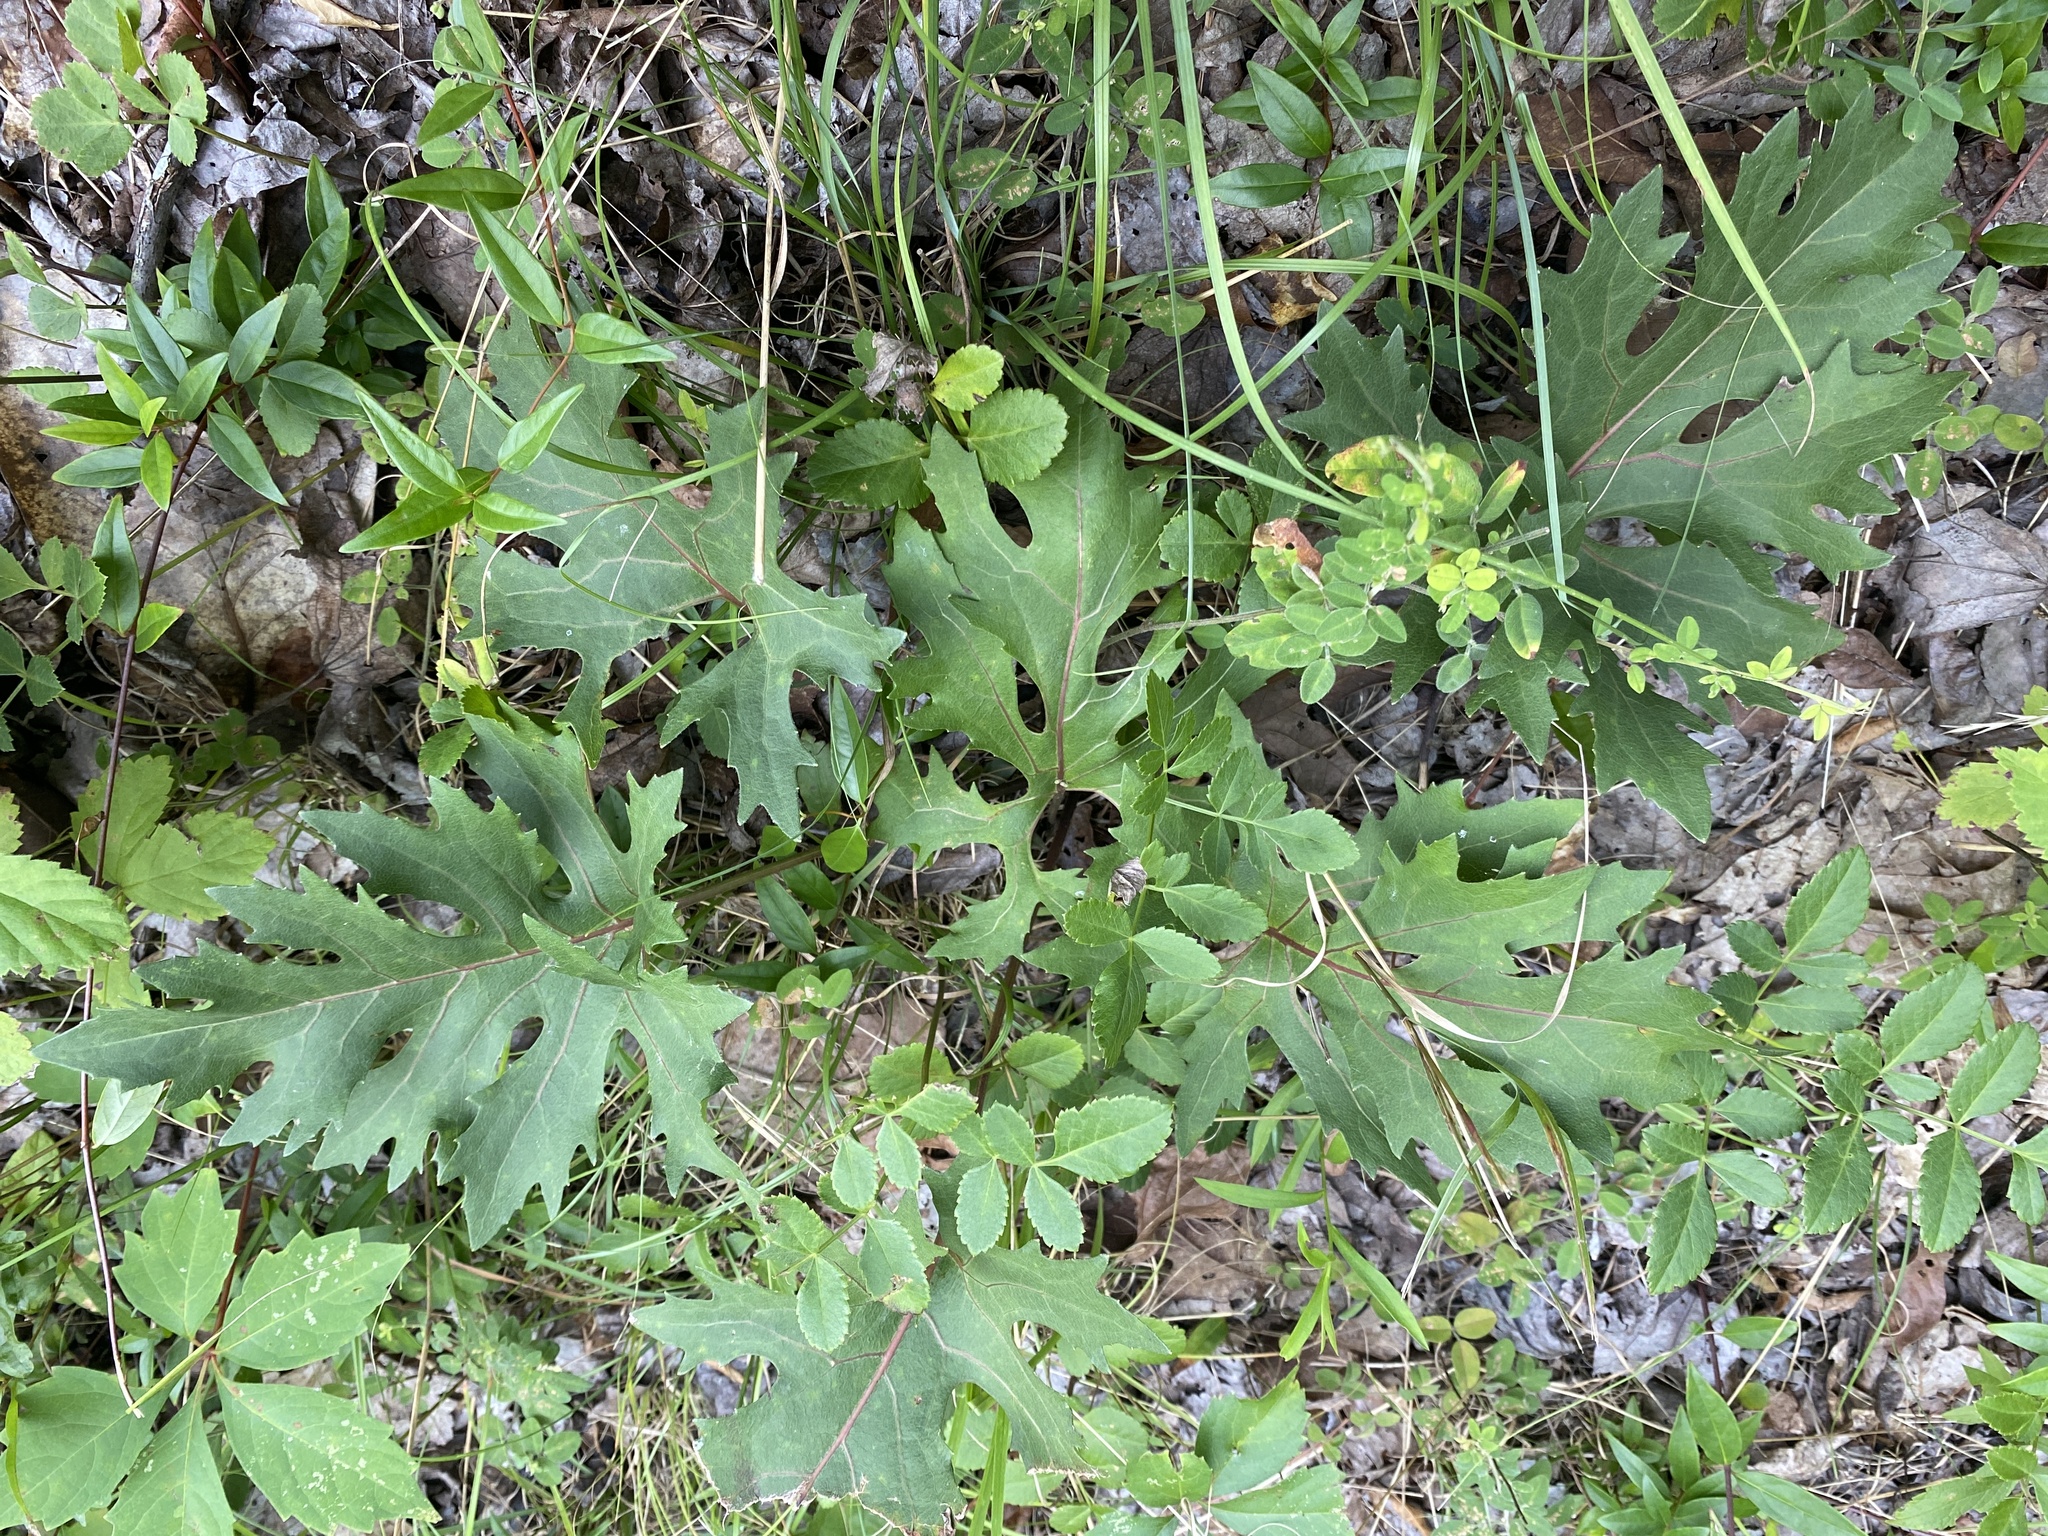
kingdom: Plantae
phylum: Tracheophyta
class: Magnoliopsida
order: Asterales
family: Asteraceae
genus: Silphium
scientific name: Silphium compositum
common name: Lesser basal-leaf rosinweed
